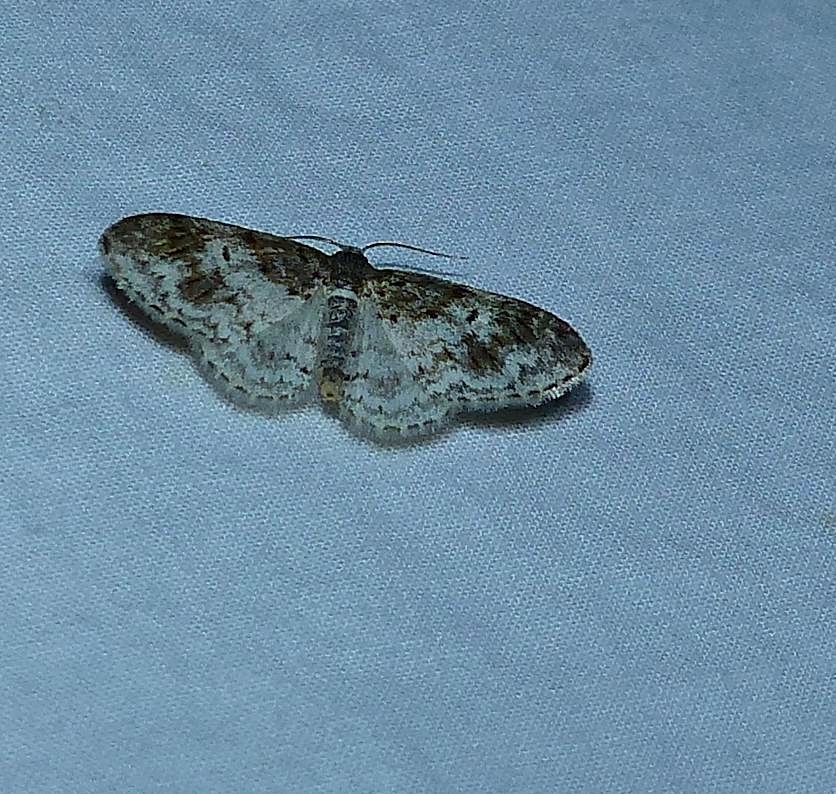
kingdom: Animalia
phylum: Arthropoda
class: Insecta
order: Lepidoptera
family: Geometridae
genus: Hydrelia
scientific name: Hydrelia inornata
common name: Unadorned carpet moth
